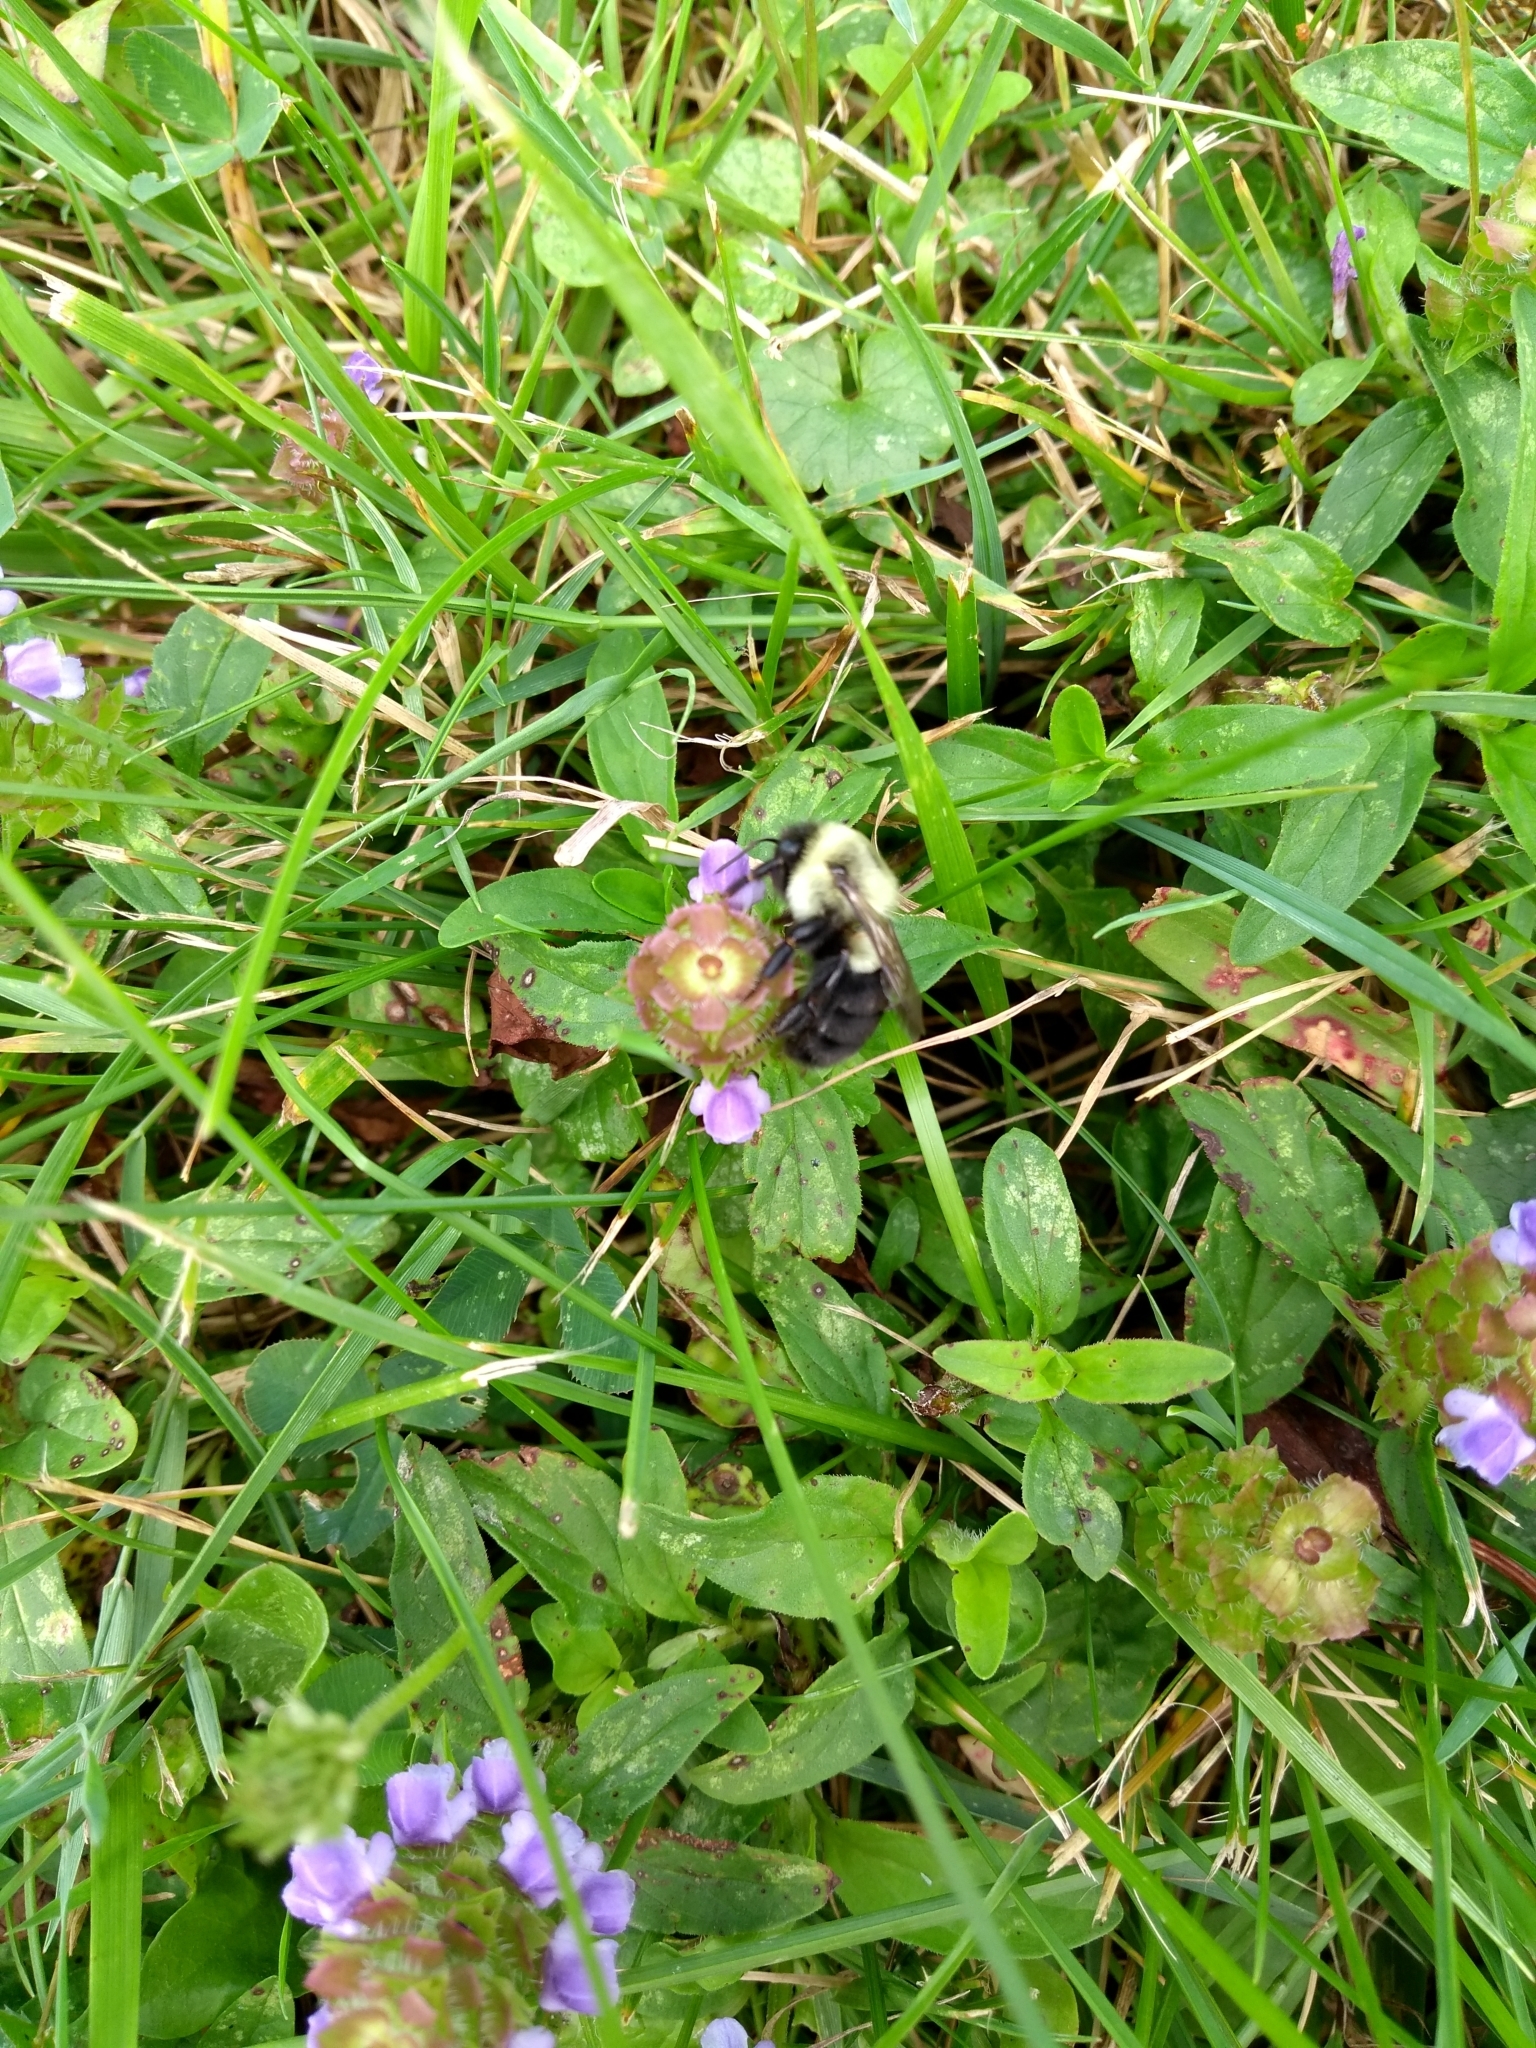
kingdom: Animalia
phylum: Arthropoda
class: Insecta
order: Hymenoptera
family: Apidae
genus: Bombus
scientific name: Bombus impatiens
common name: Common eastern bumble bee
